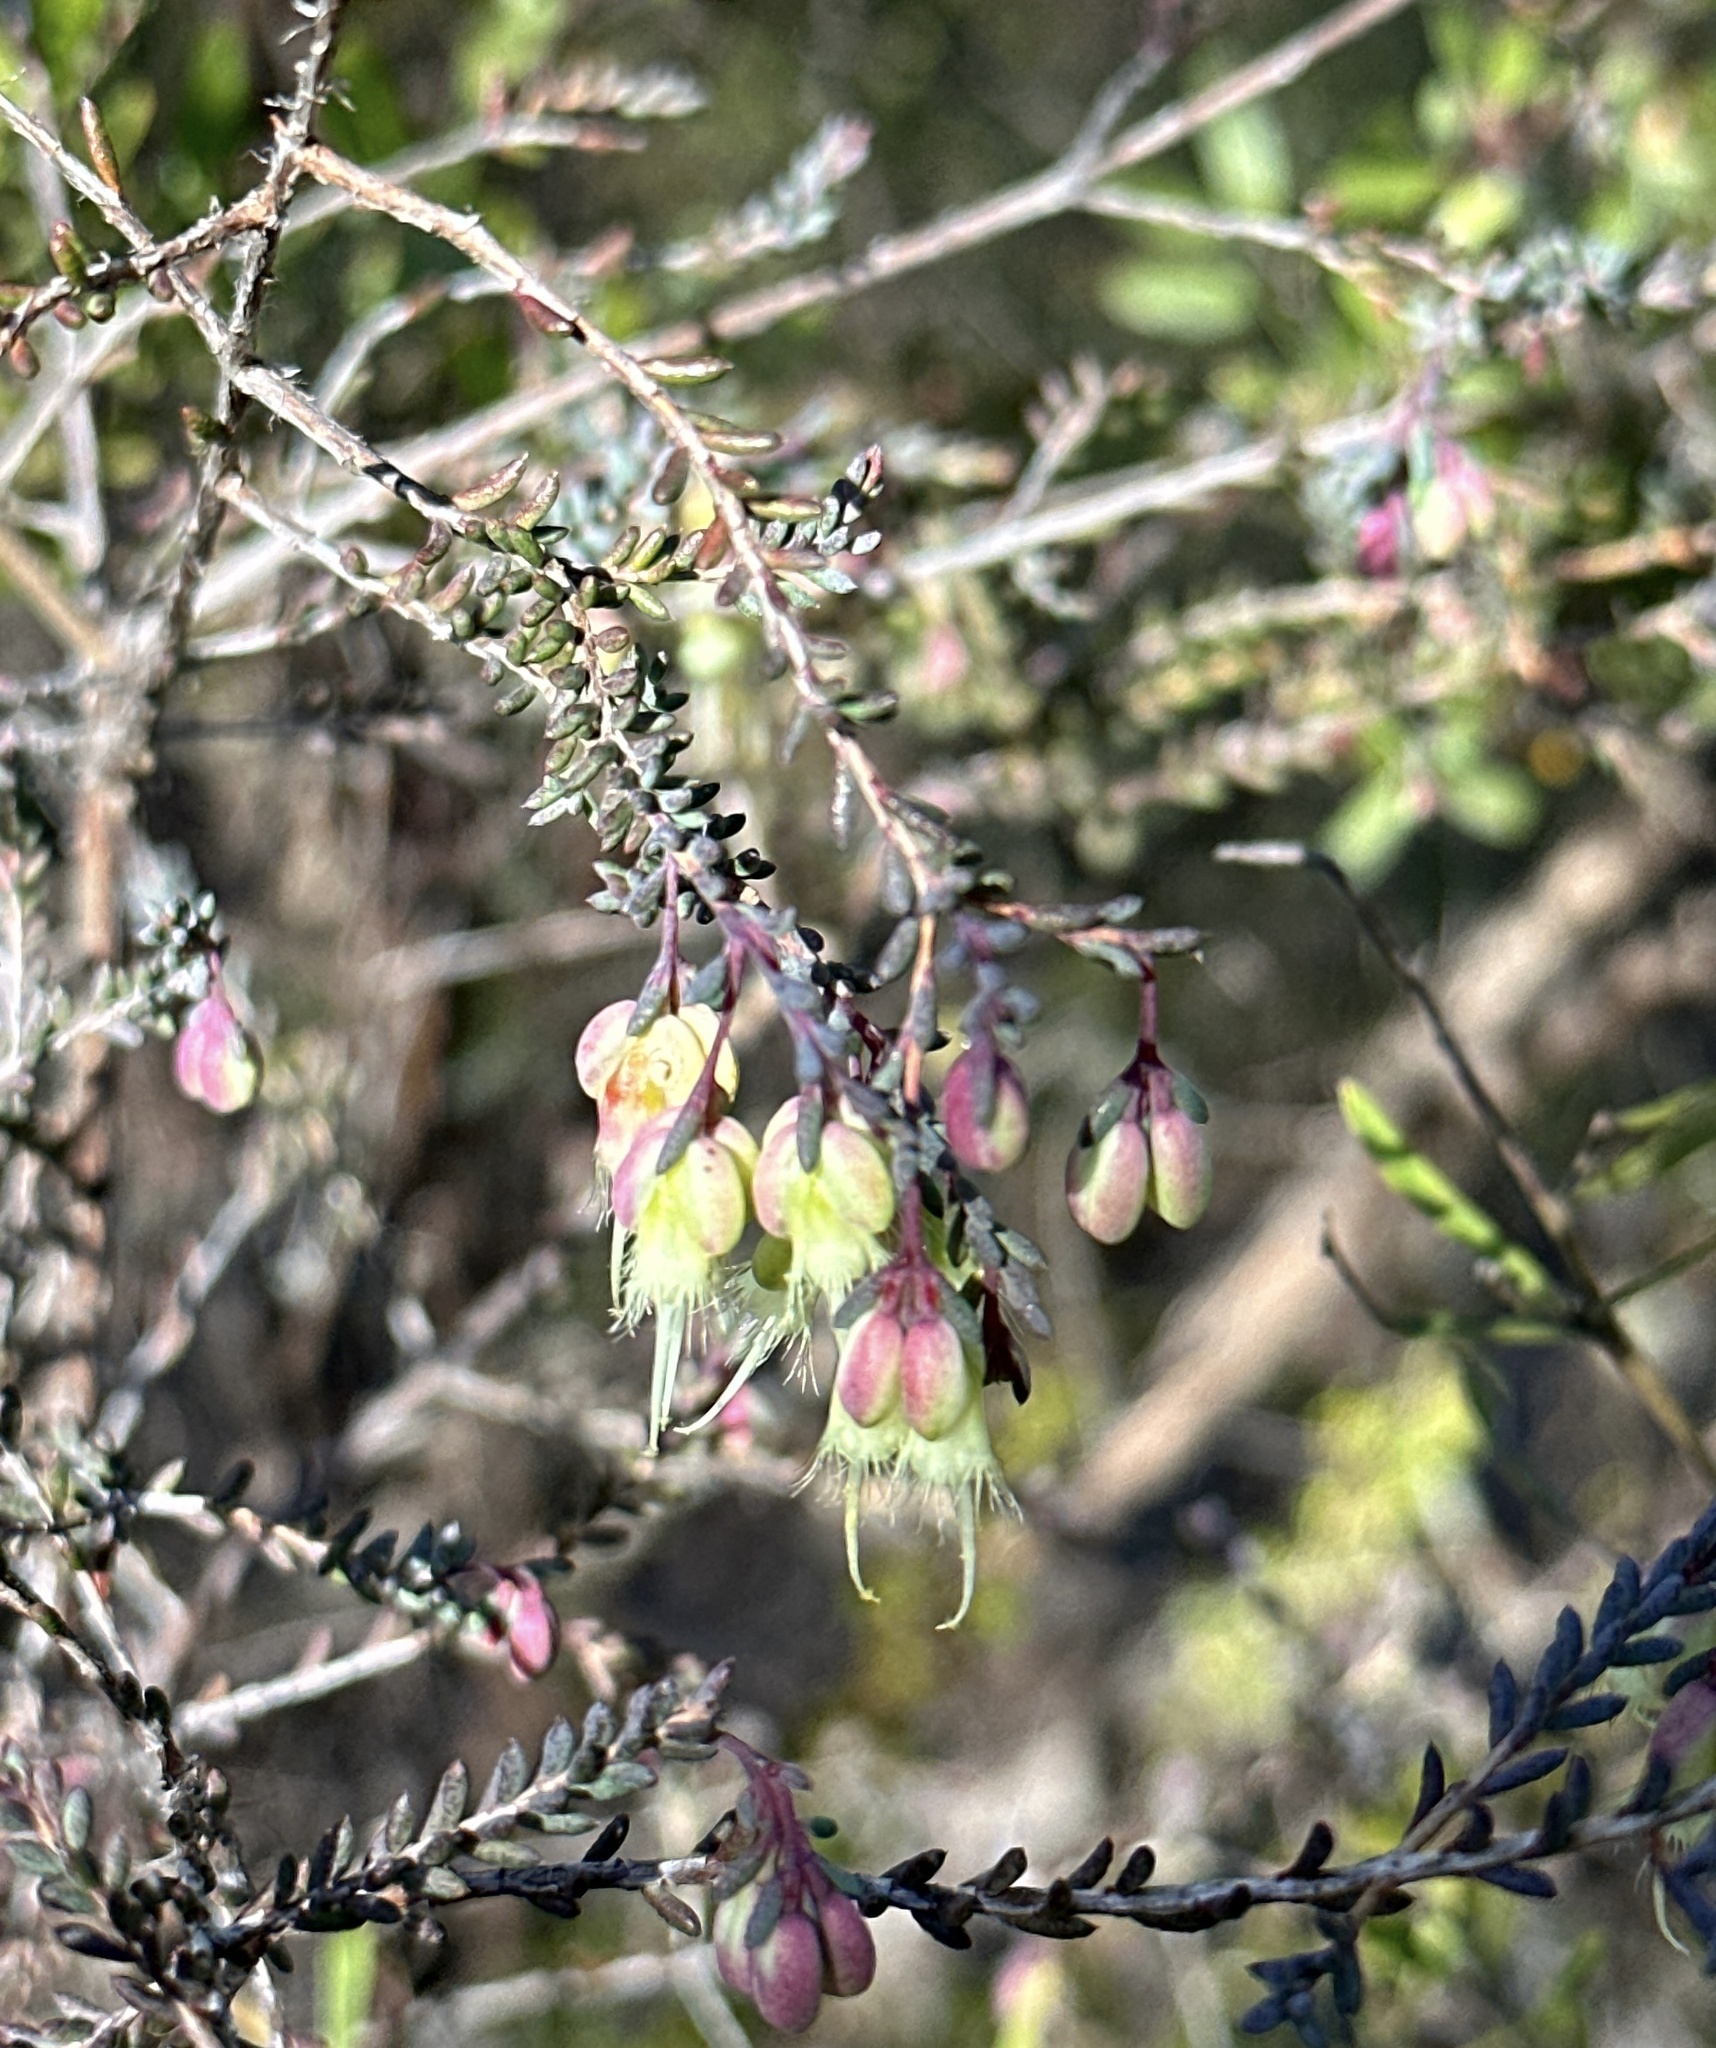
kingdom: Plantae
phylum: Tracheophyta
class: Magnoliopsida
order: Myrtales
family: Myrtaceae
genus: Homoranthus
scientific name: Homoranthus darwinioides
